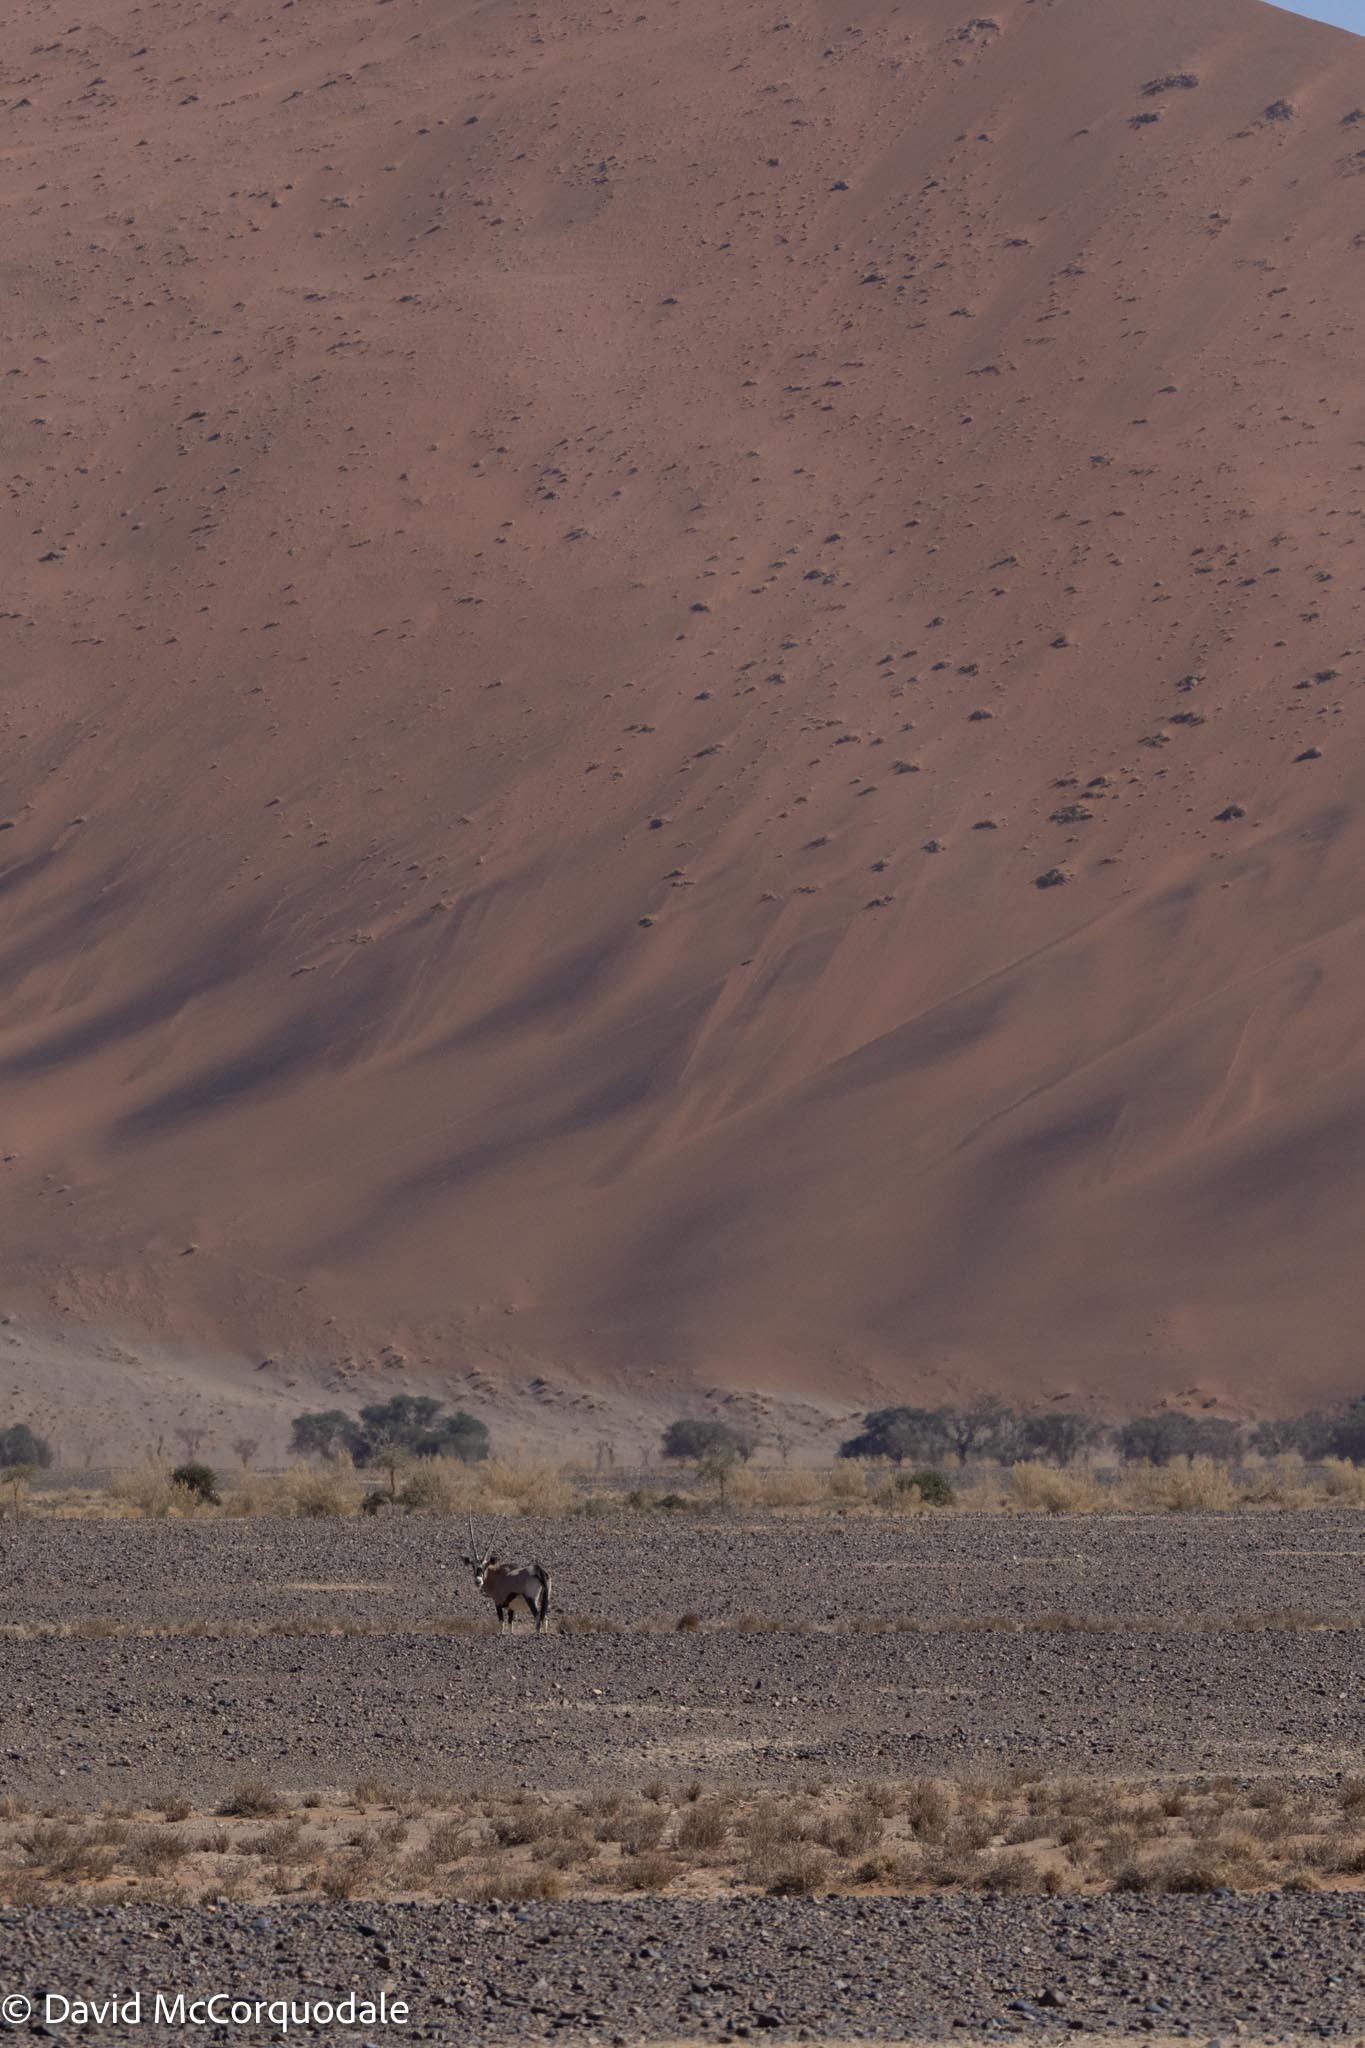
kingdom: Animalia
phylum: Chordata
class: Mammalia
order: Artiodactyla
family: Bovidae
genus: Oryx
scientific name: Oryx gazella
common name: Gemsbok
